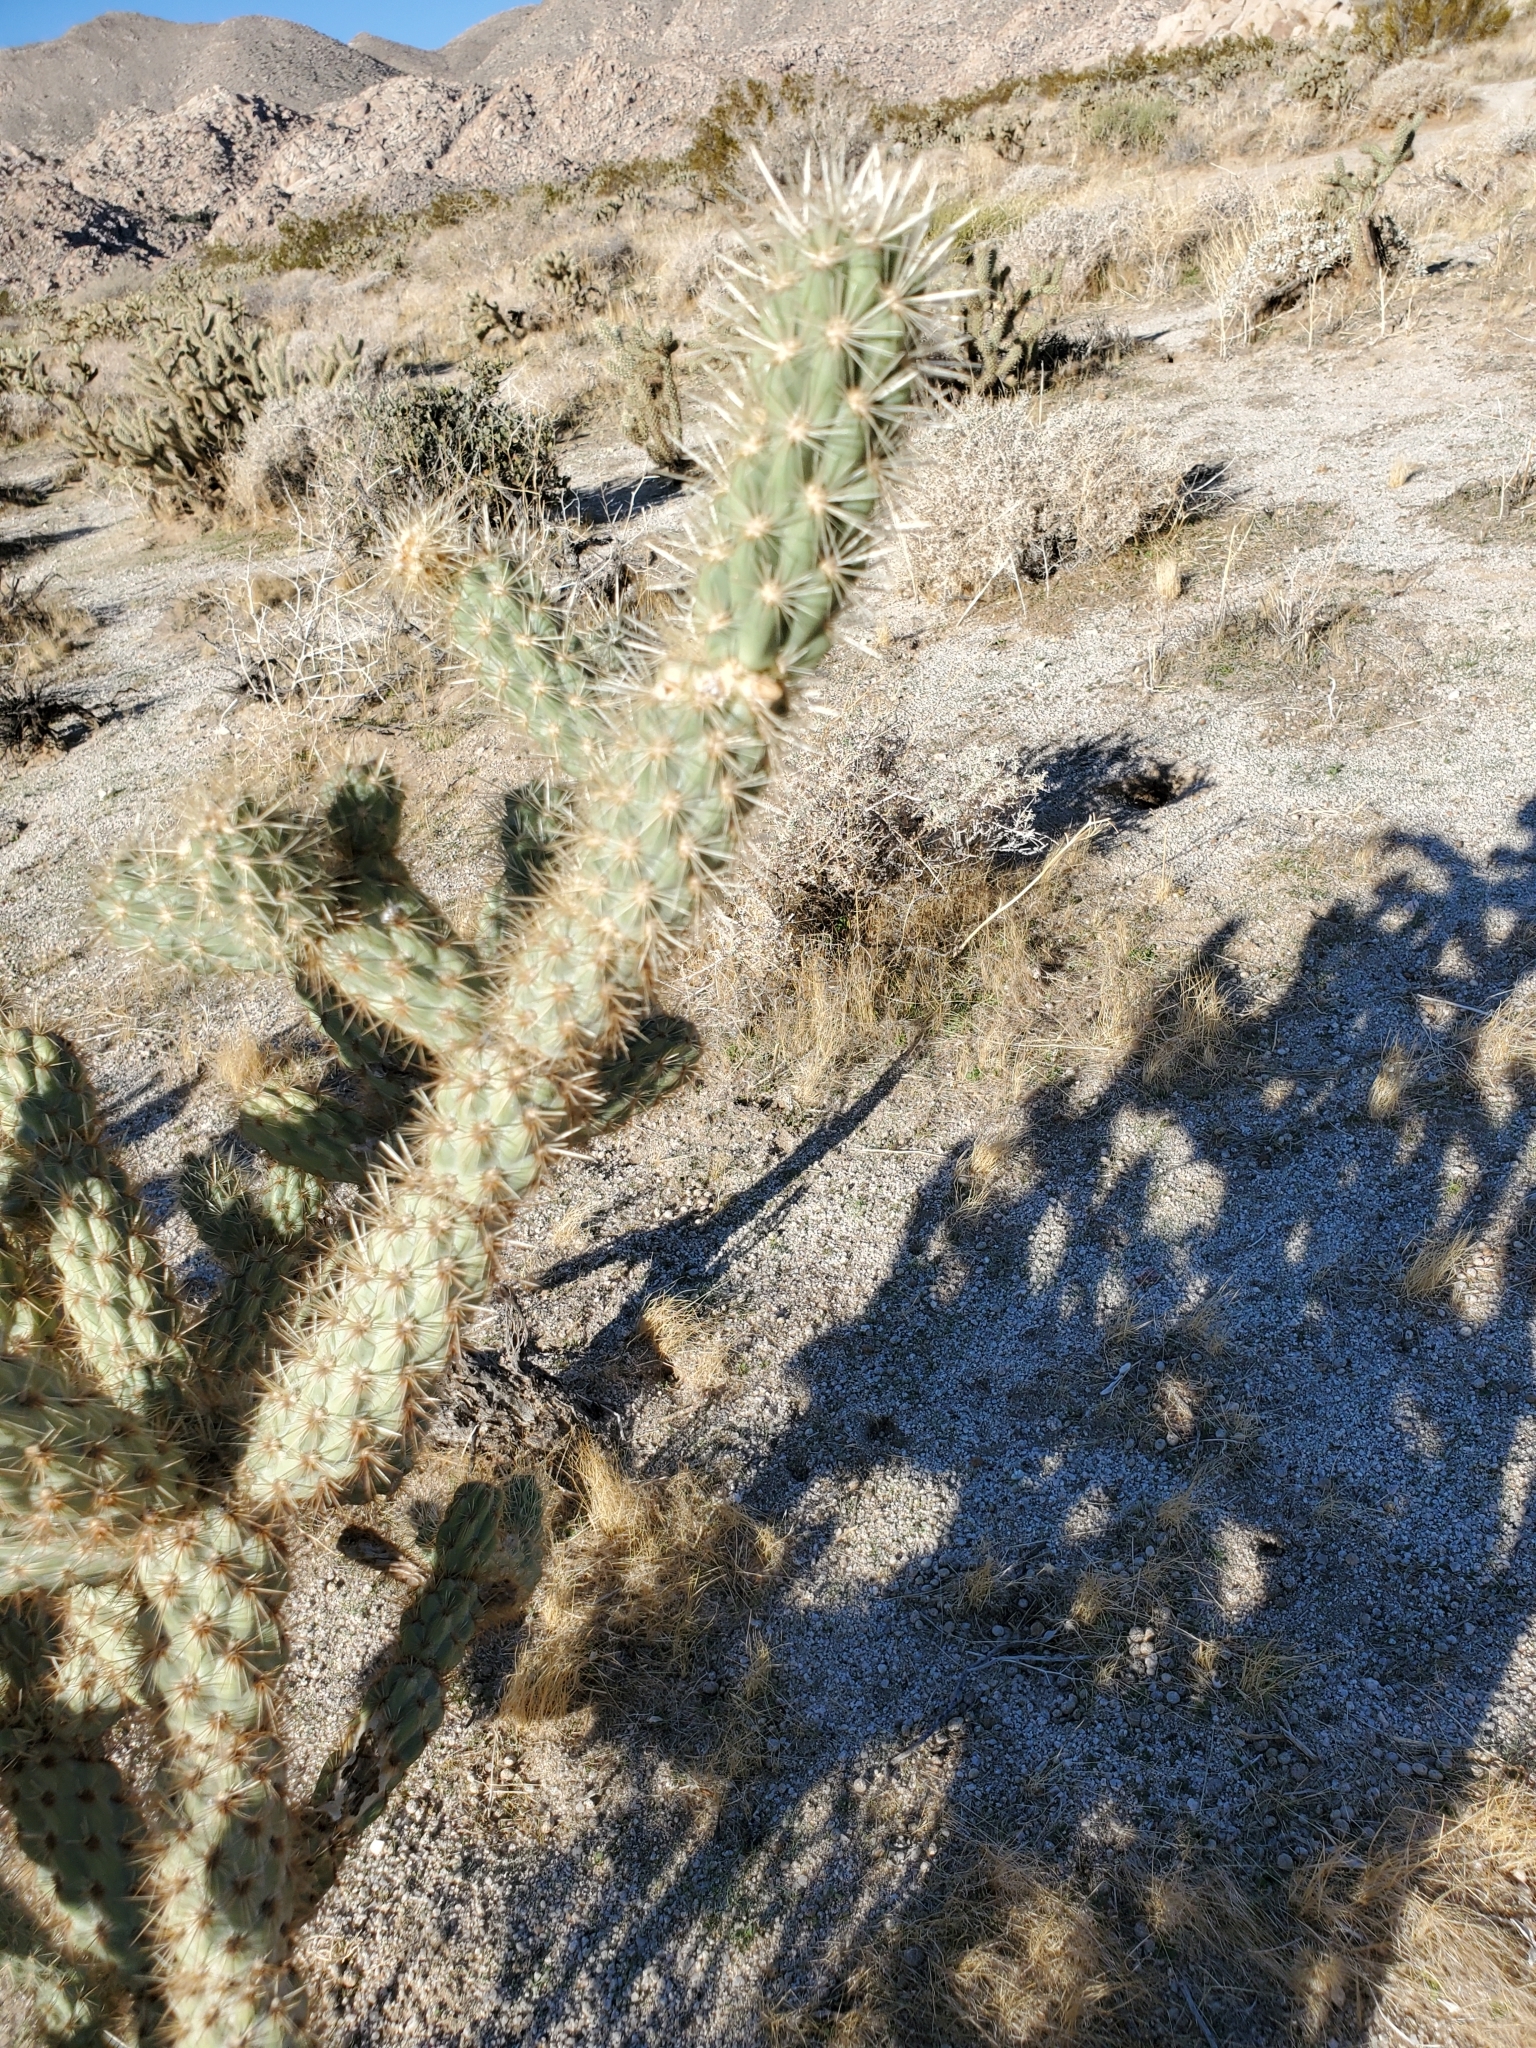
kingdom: Plantae
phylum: Tracheophyta
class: Magnoliopsida
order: Caryophyllales
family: Cactaceae
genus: Cylindropuntia
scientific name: Cylindropuntia ganderi
